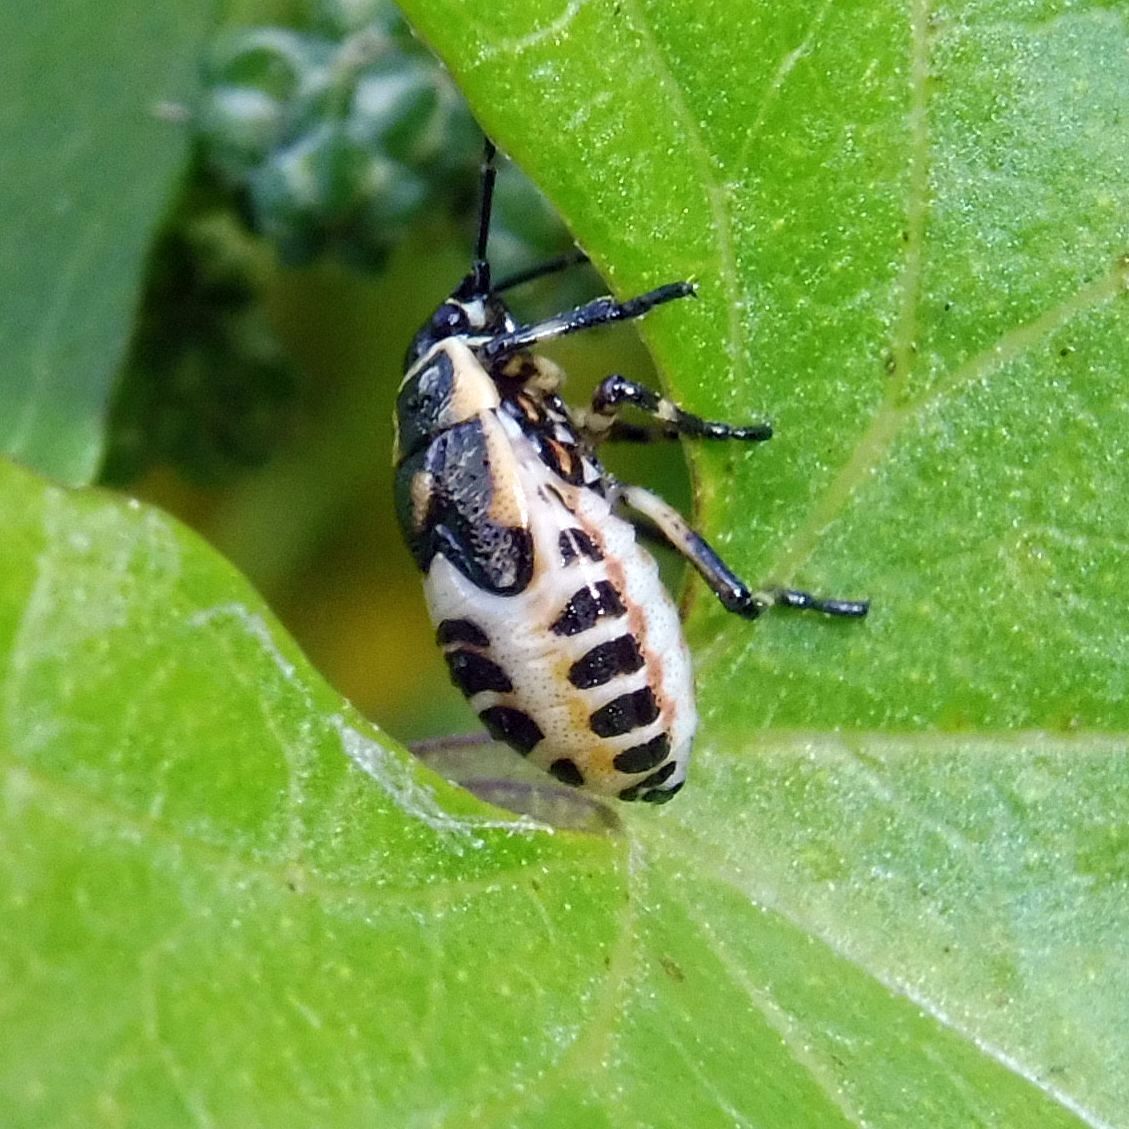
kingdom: Animalia
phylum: Arthropoda
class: Insecta
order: Hemiptera
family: Pentatomidae
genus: Eurydema
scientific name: Eurydema oleracea
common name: Cabbage bug
